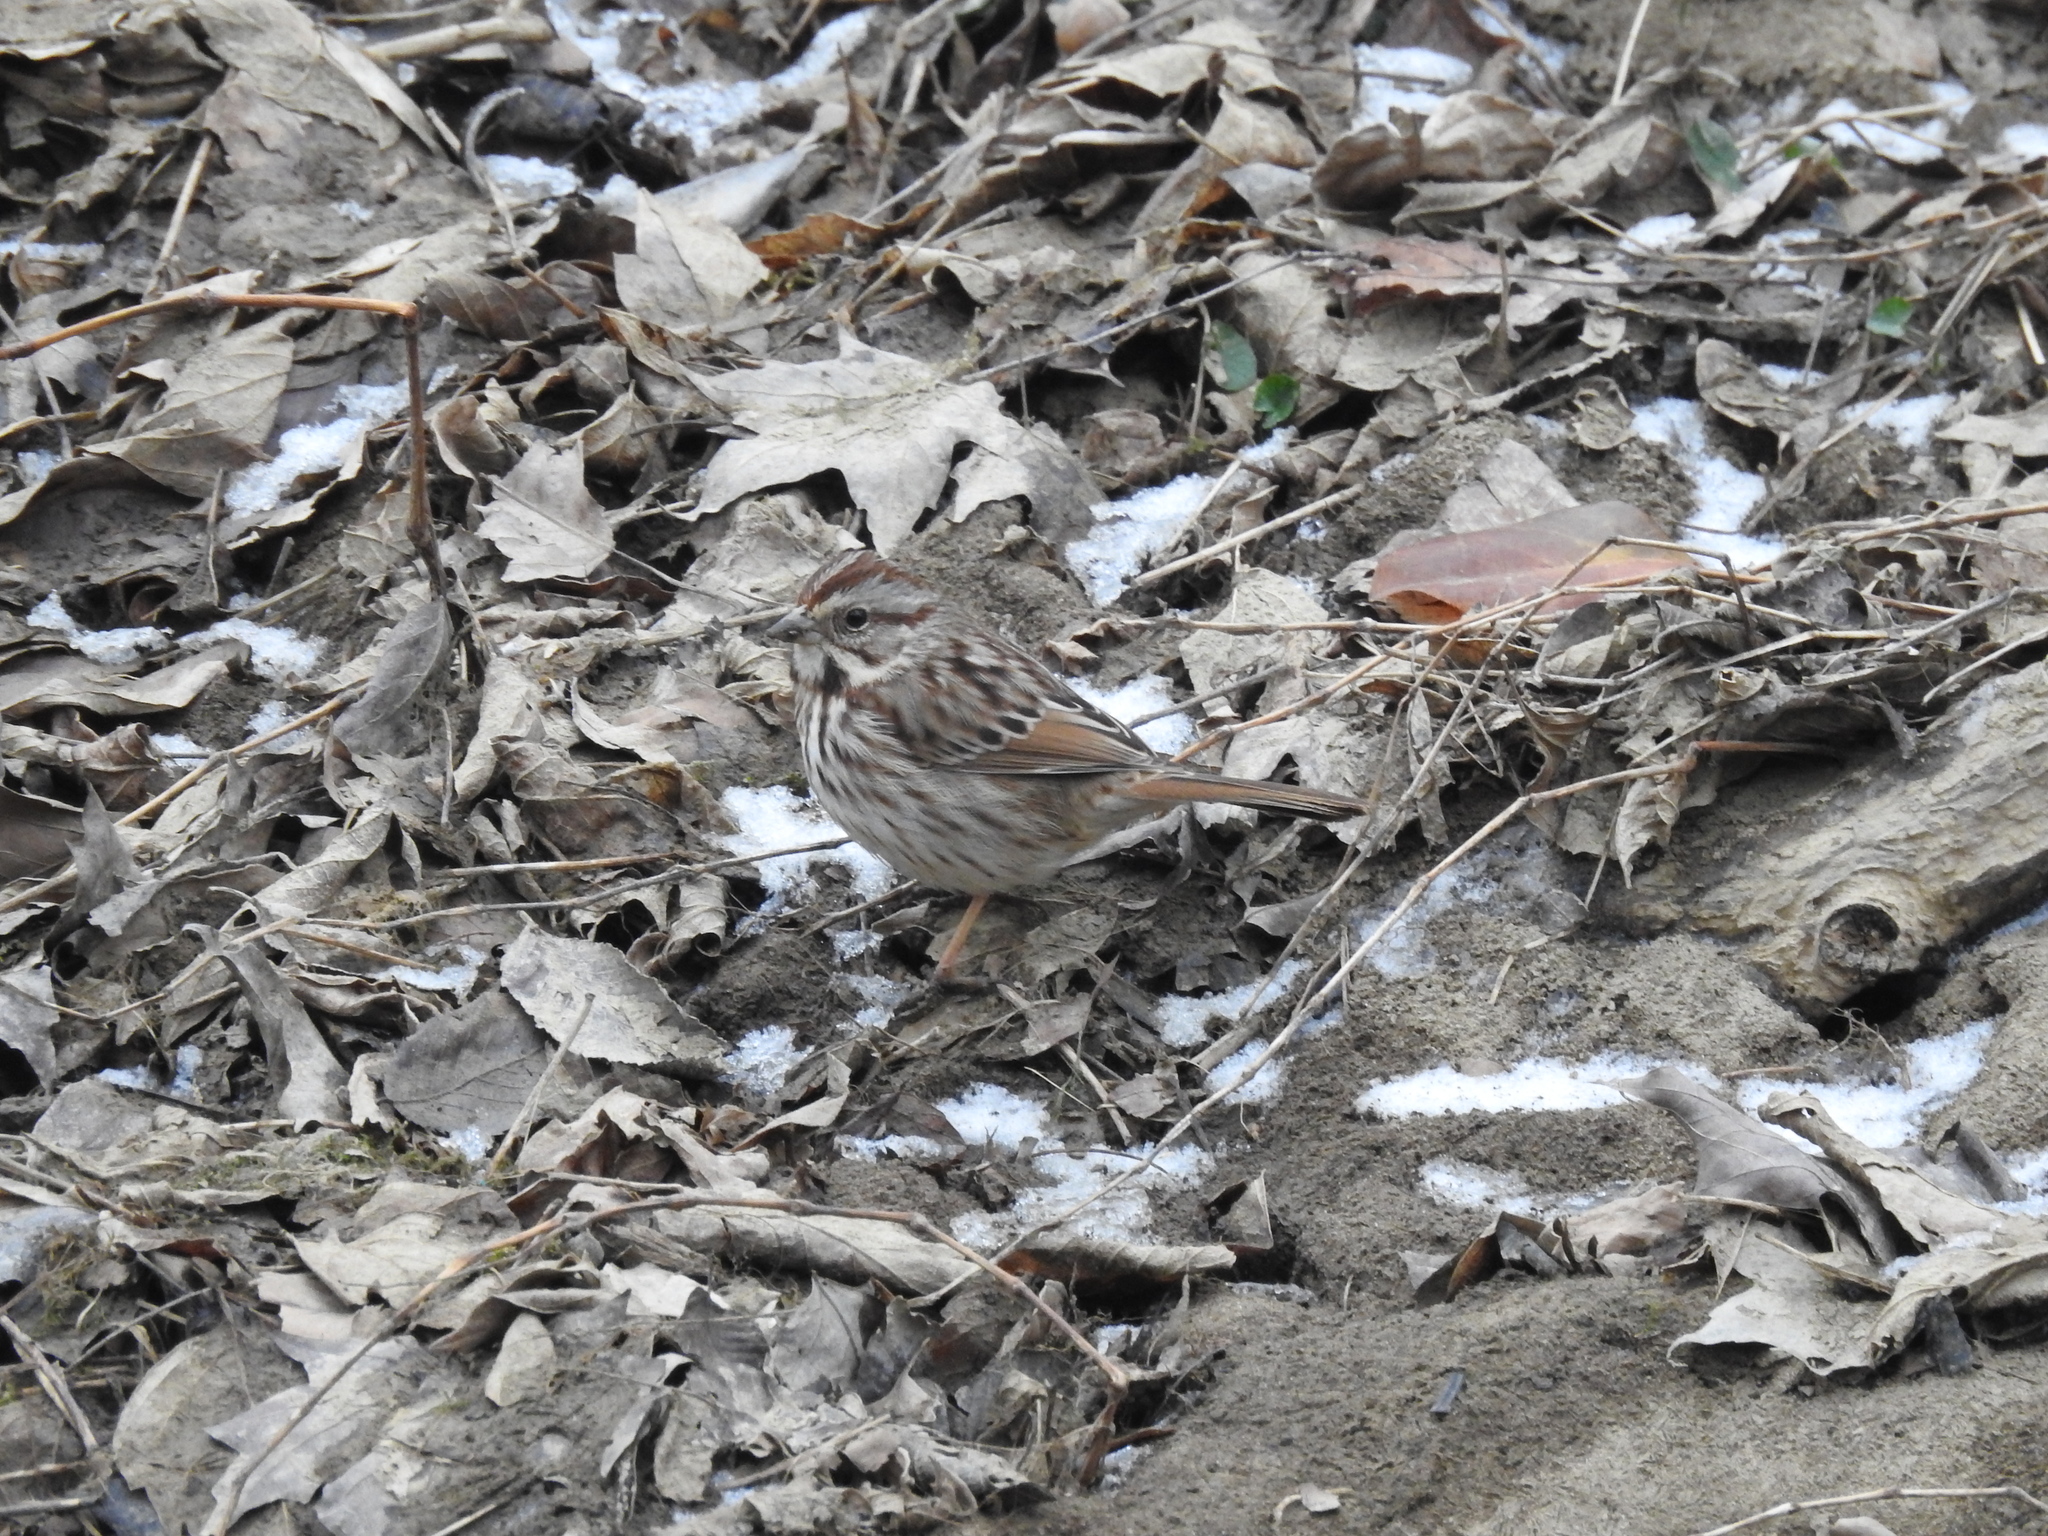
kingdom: Animalia
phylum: Chordata
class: Aves
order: Passeriformes
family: Passerellidae
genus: Melospiza
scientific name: Melospiza melodia
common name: Song sparrow
